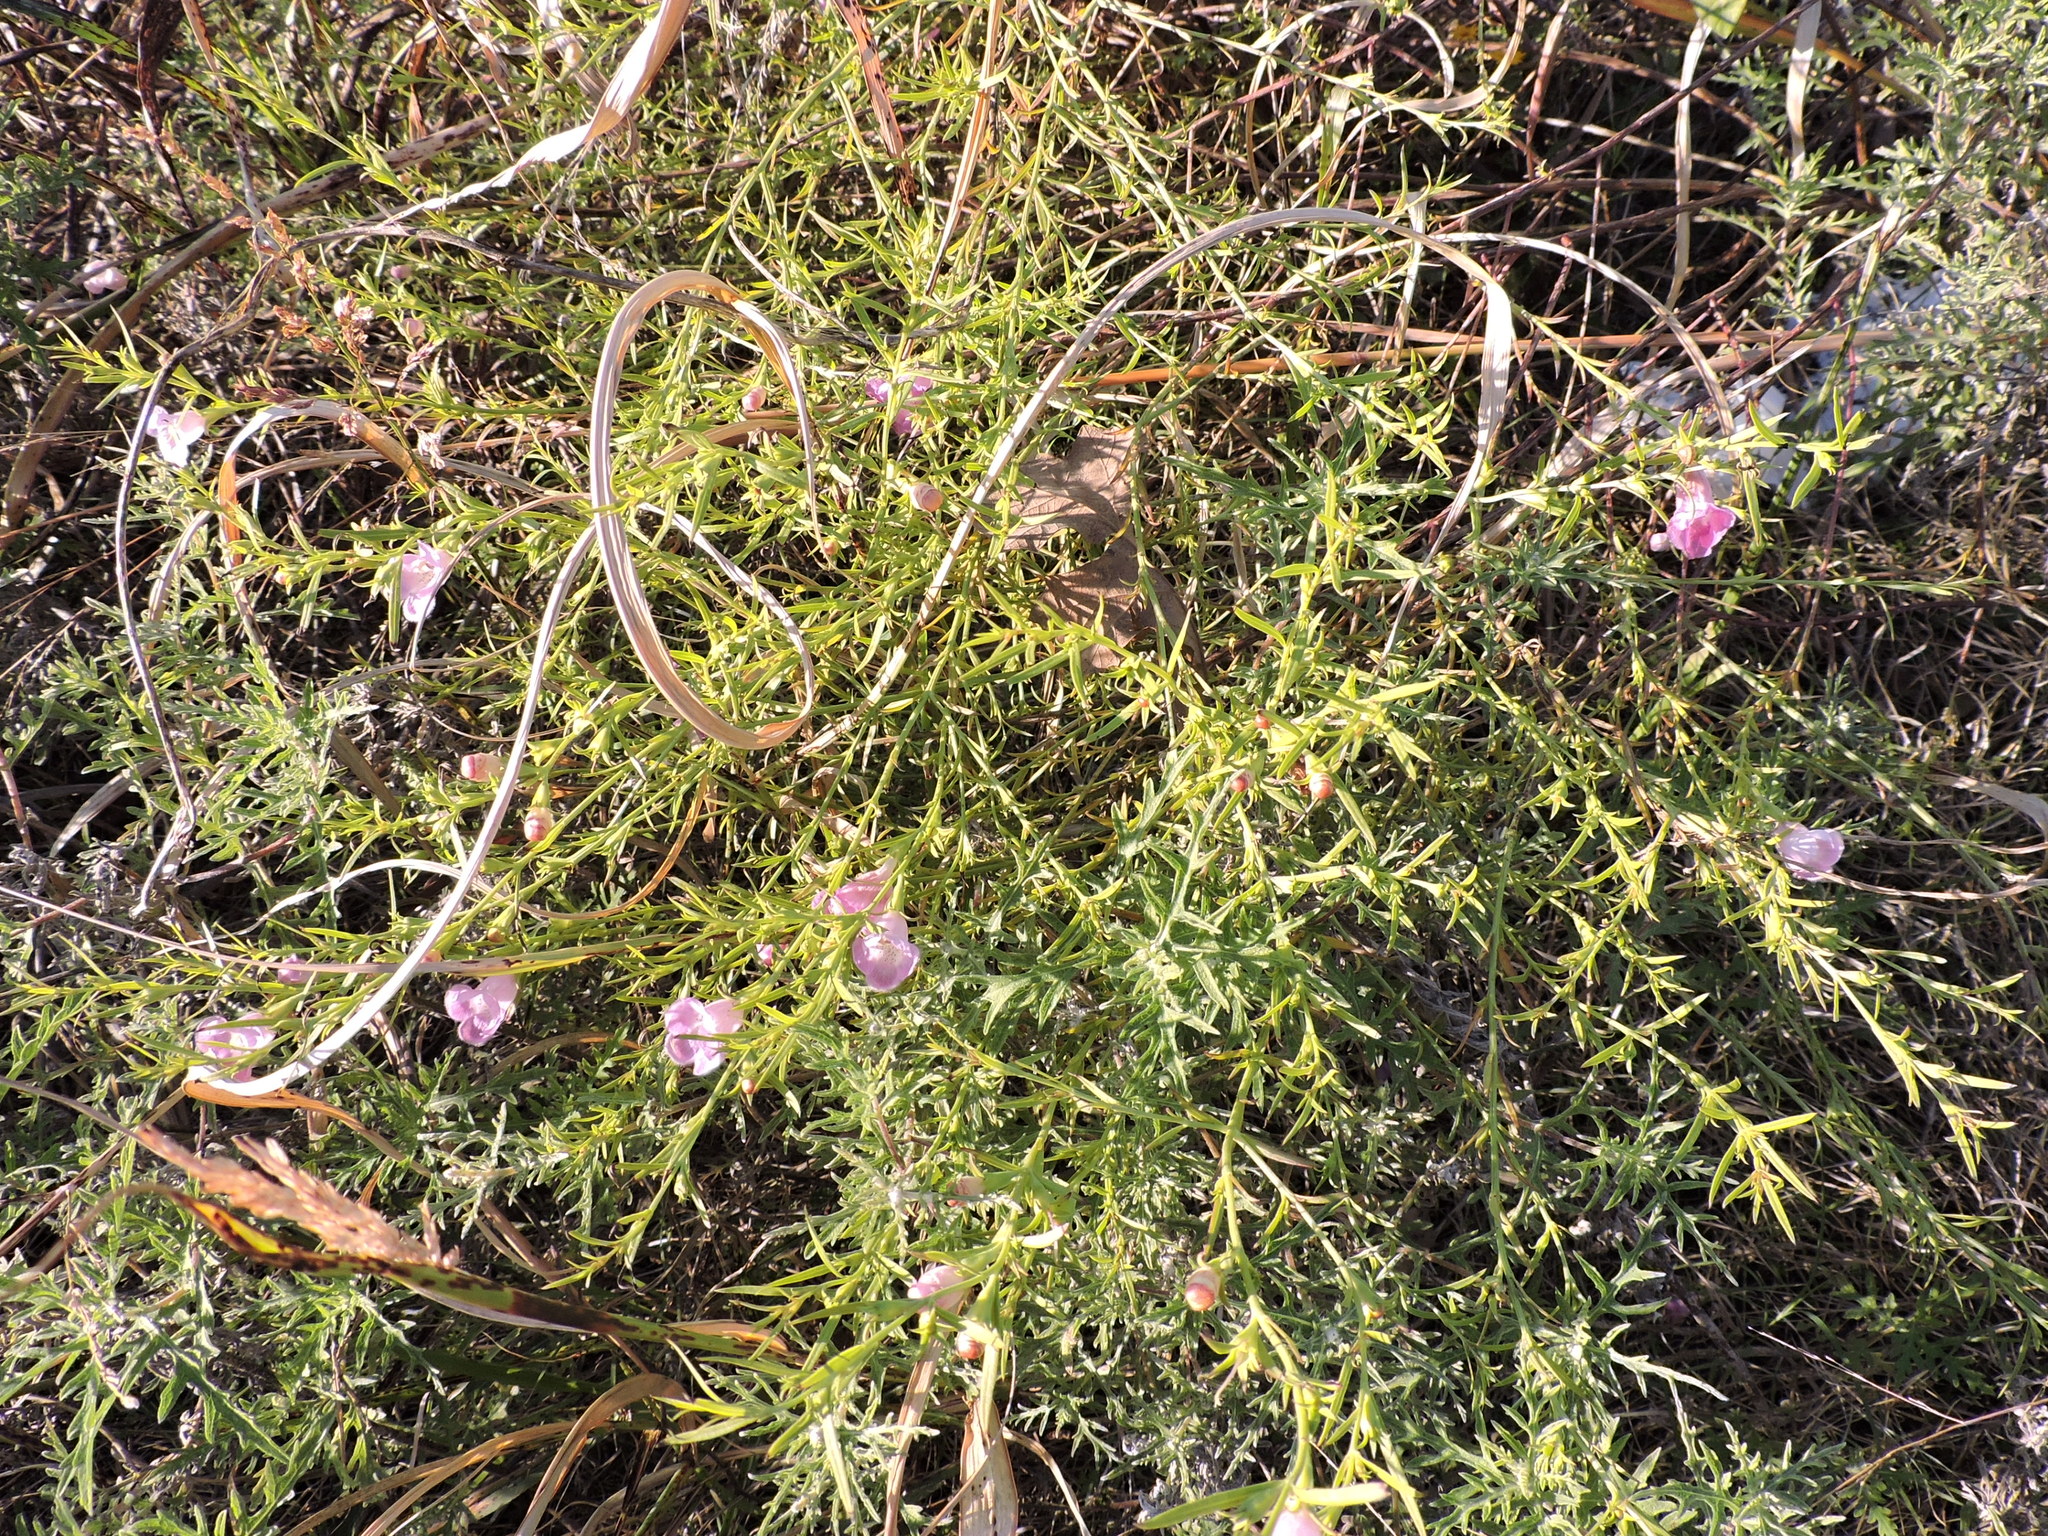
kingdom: Plantae
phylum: Tracheophyta
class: Magnoliopsida
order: Lamiales
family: Orobanchaceae
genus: Agalinis
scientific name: Agalinis heterophylla
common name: Prairie agalinis
